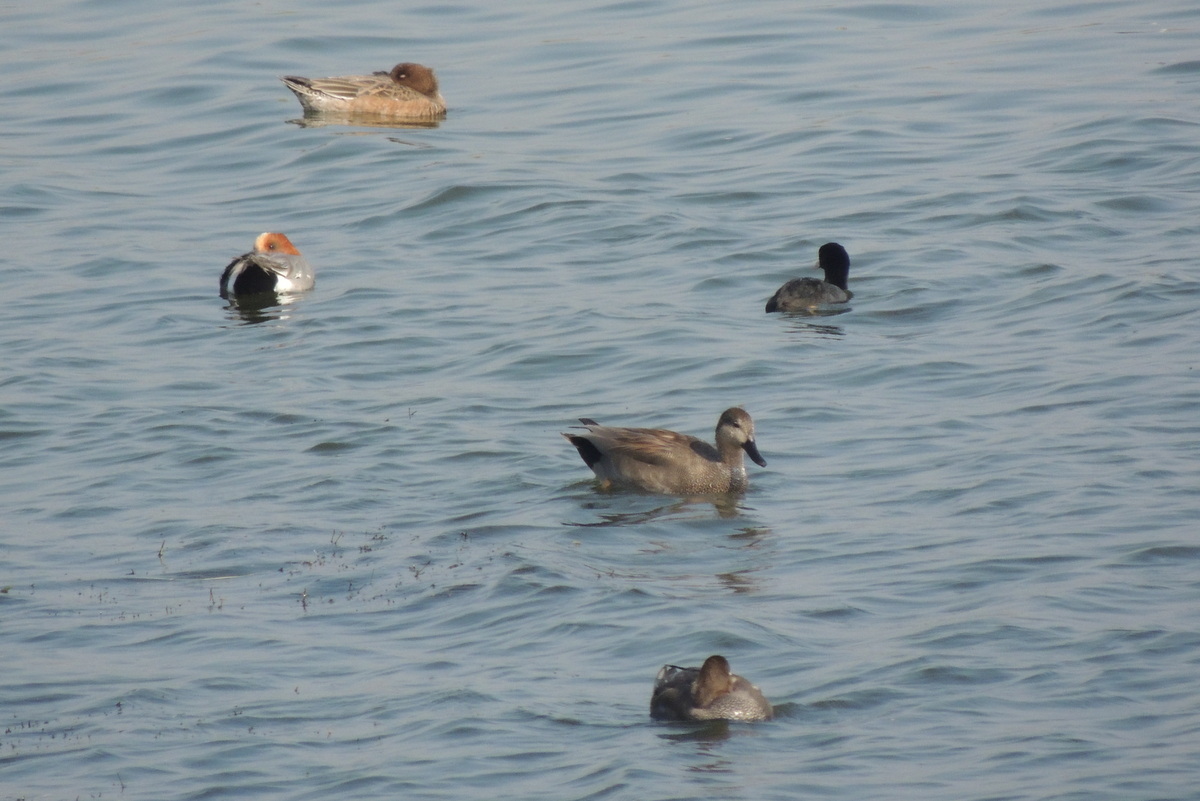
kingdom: Animalia
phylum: Chordata
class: Aves
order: Anseriformes
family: Anatidae
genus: Mareca
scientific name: Mareca penelope
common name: Eurasian wigeon
